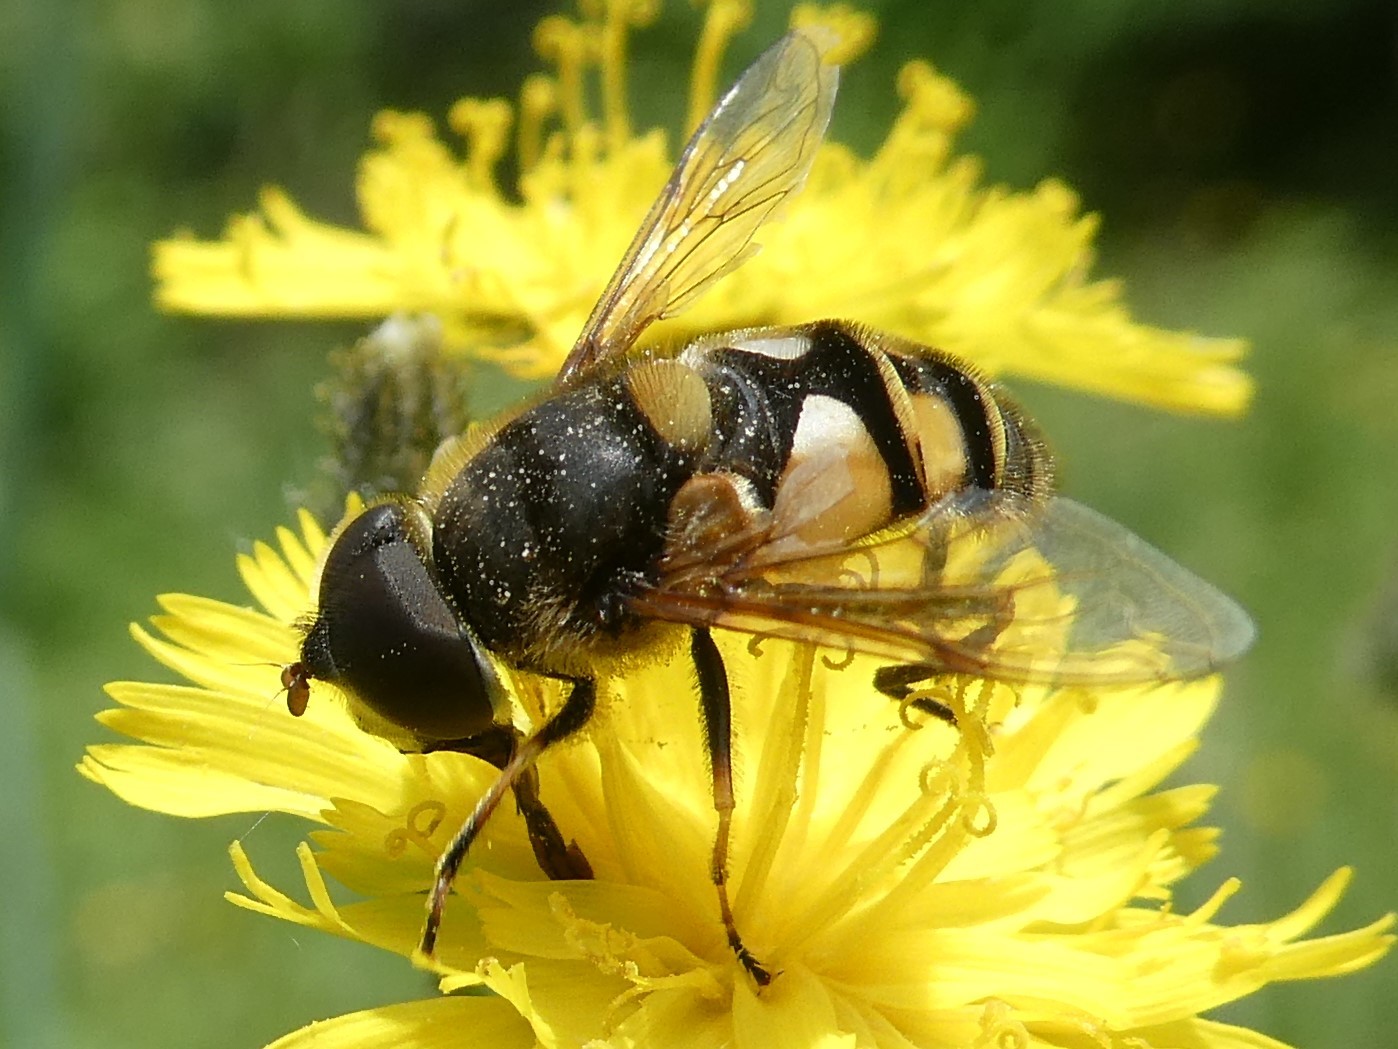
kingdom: Animalia
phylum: Arthropoda
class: Insecta
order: Diptera
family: Syrphidae
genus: Eristalis
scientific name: Eristalis transversa
